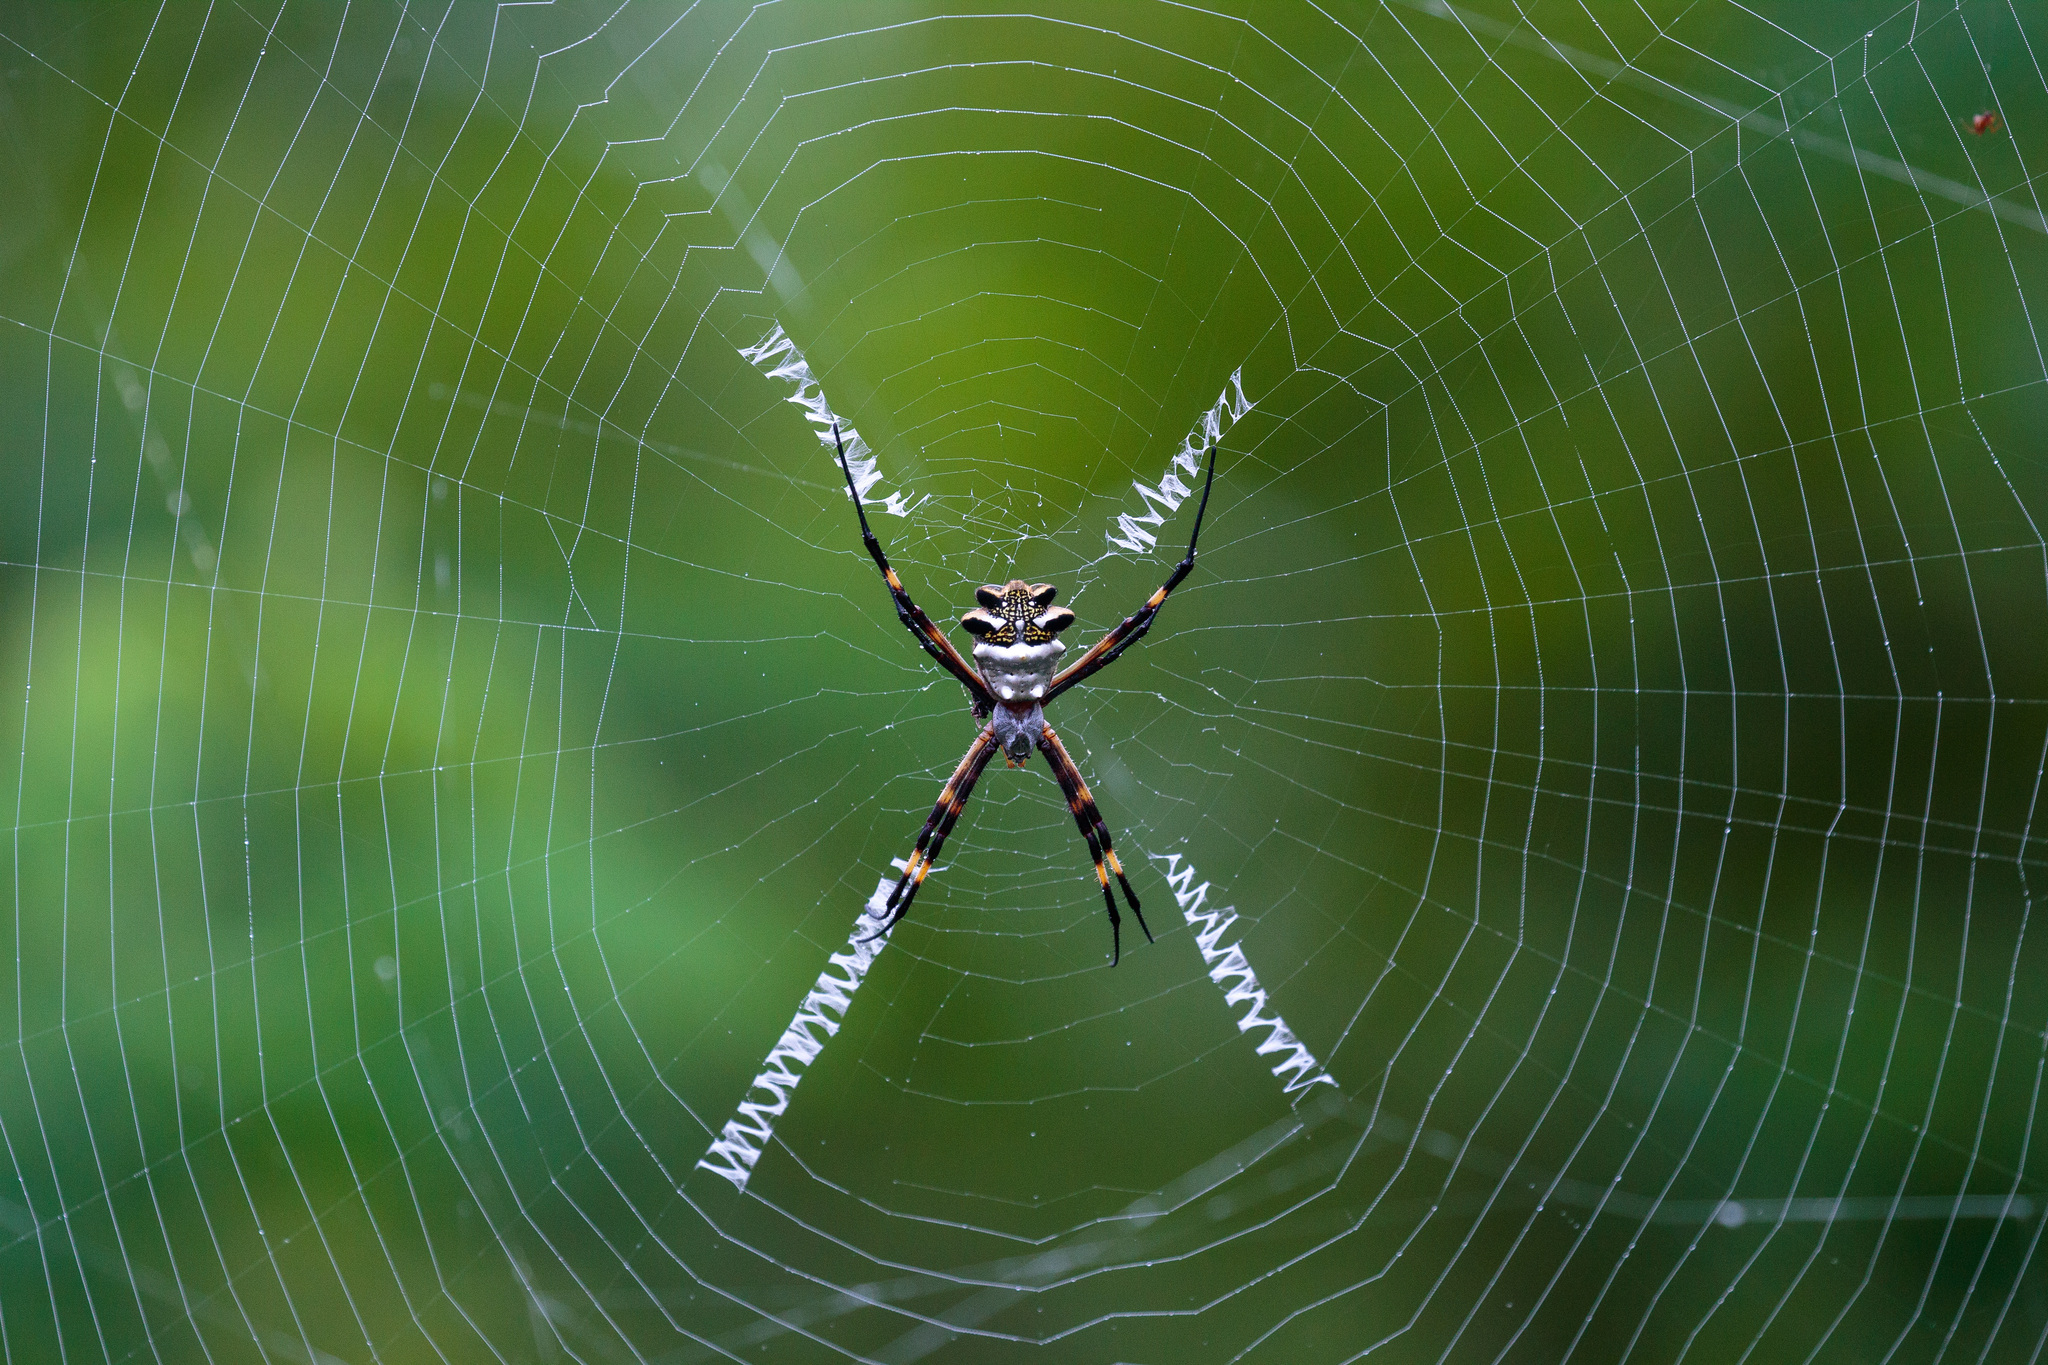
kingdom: Animalia
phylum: Arthropoda
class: Arachnida
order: Araneae
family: Araneidae
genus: Argiope
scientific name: Argiope argentata
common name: Orb weavers
